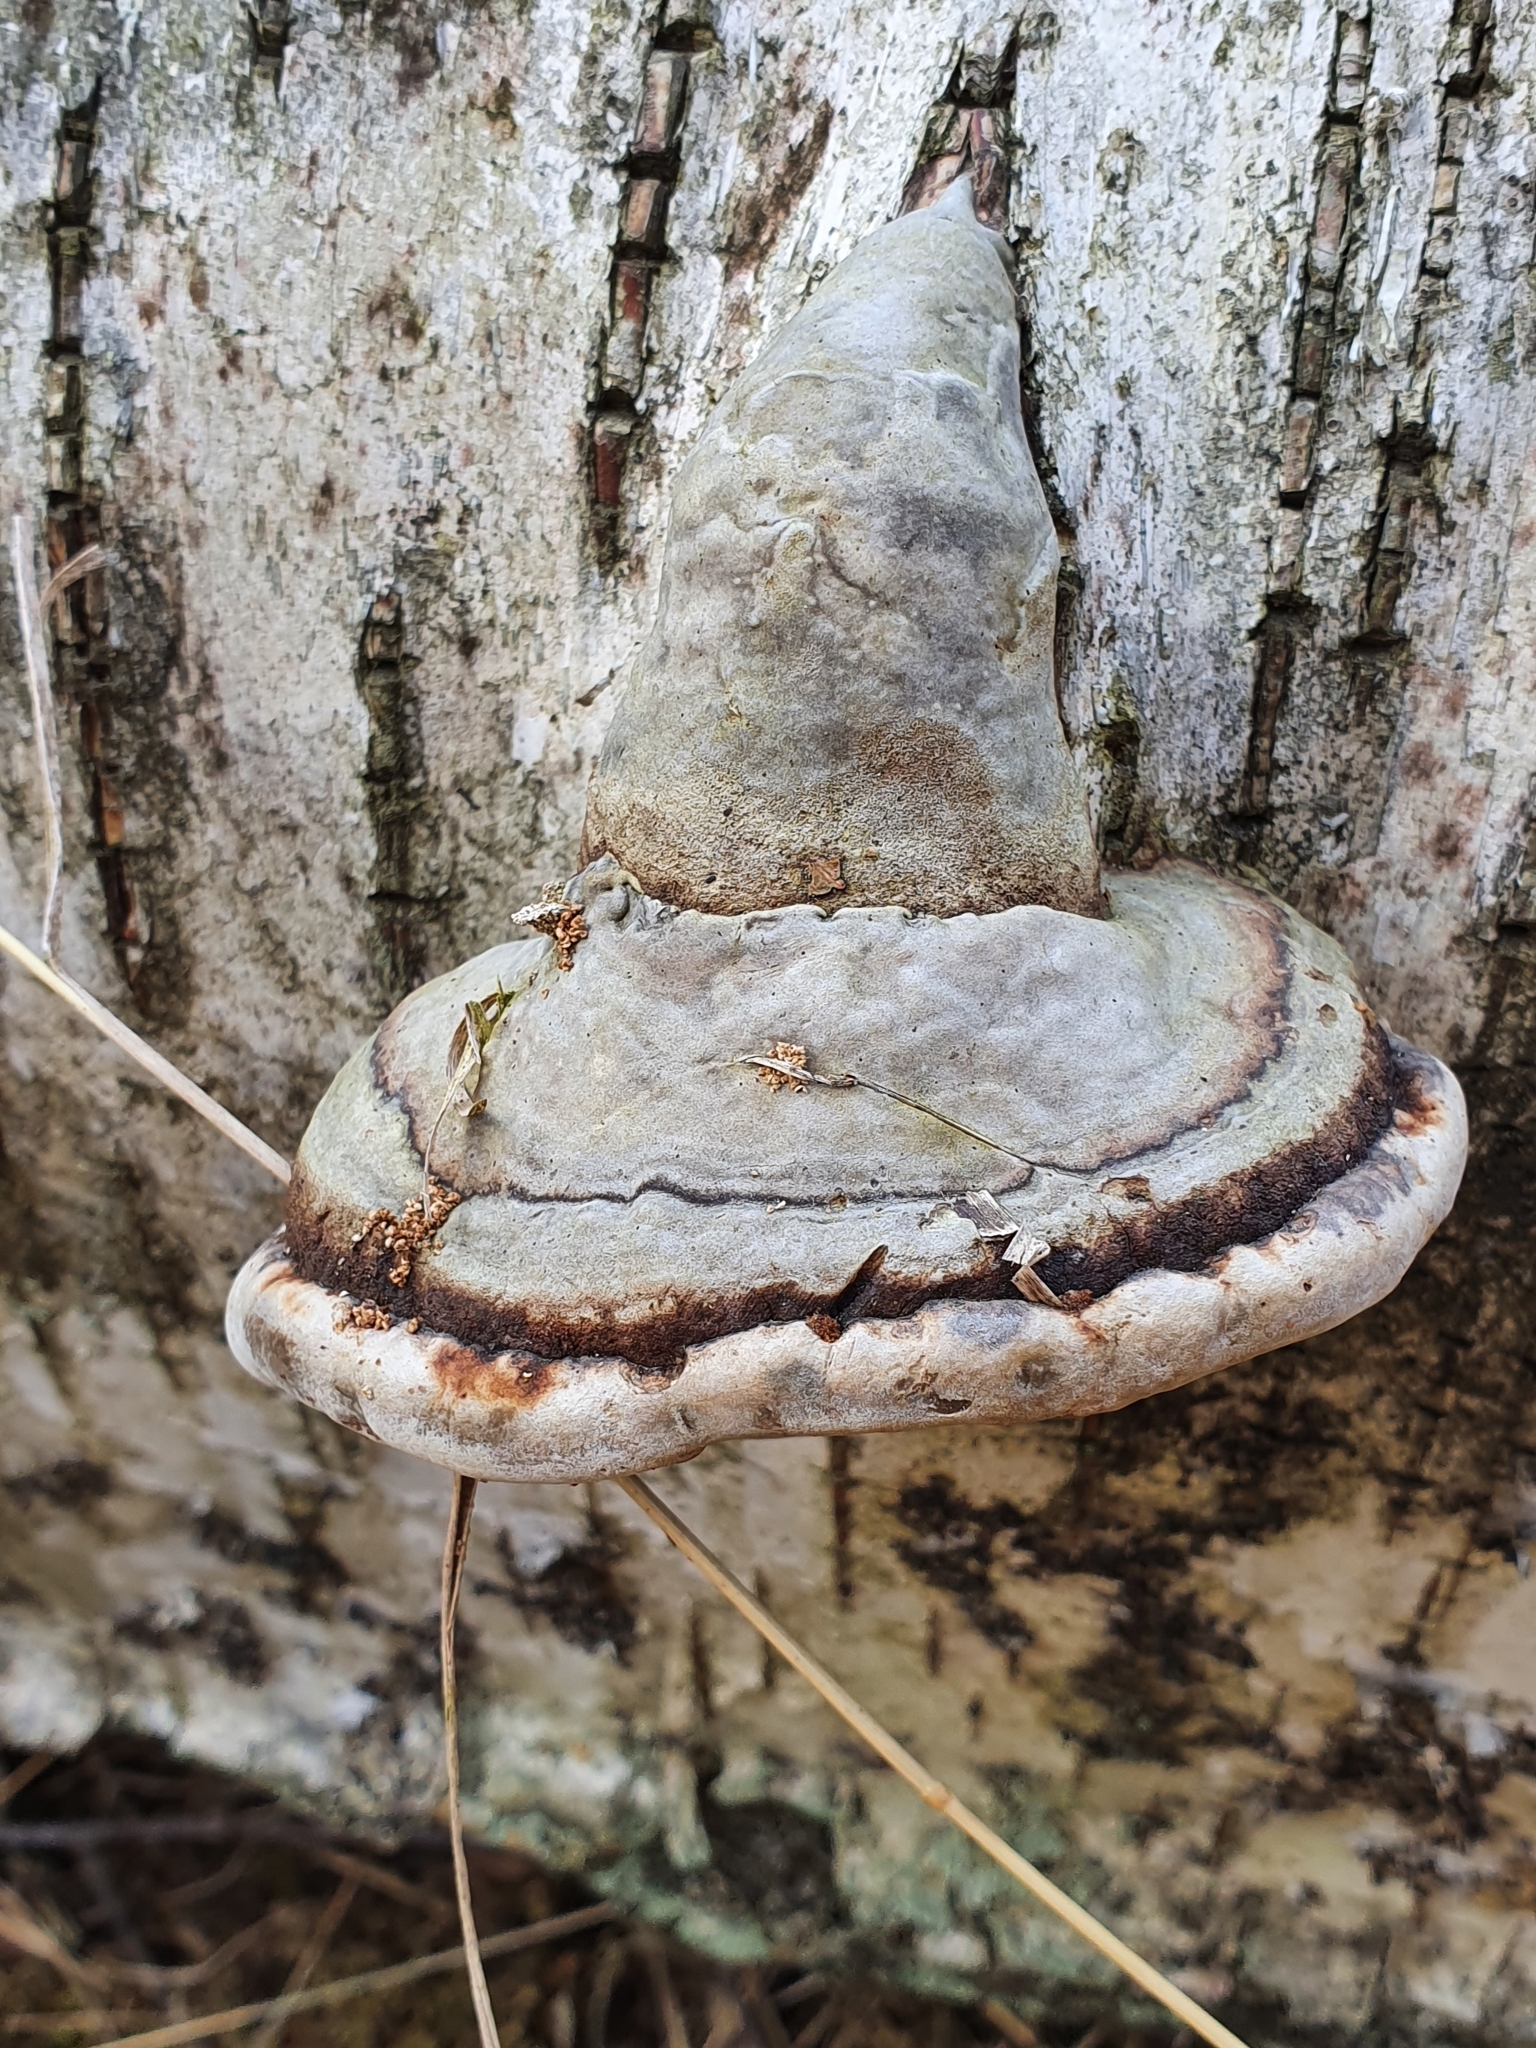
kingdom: Fungi
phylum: Basidiomycota
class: Agaricomycetes
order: Polyporales
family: Polyporaceae
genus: Fomes
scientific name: Fomes fomentarius
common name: Hoof fungus
